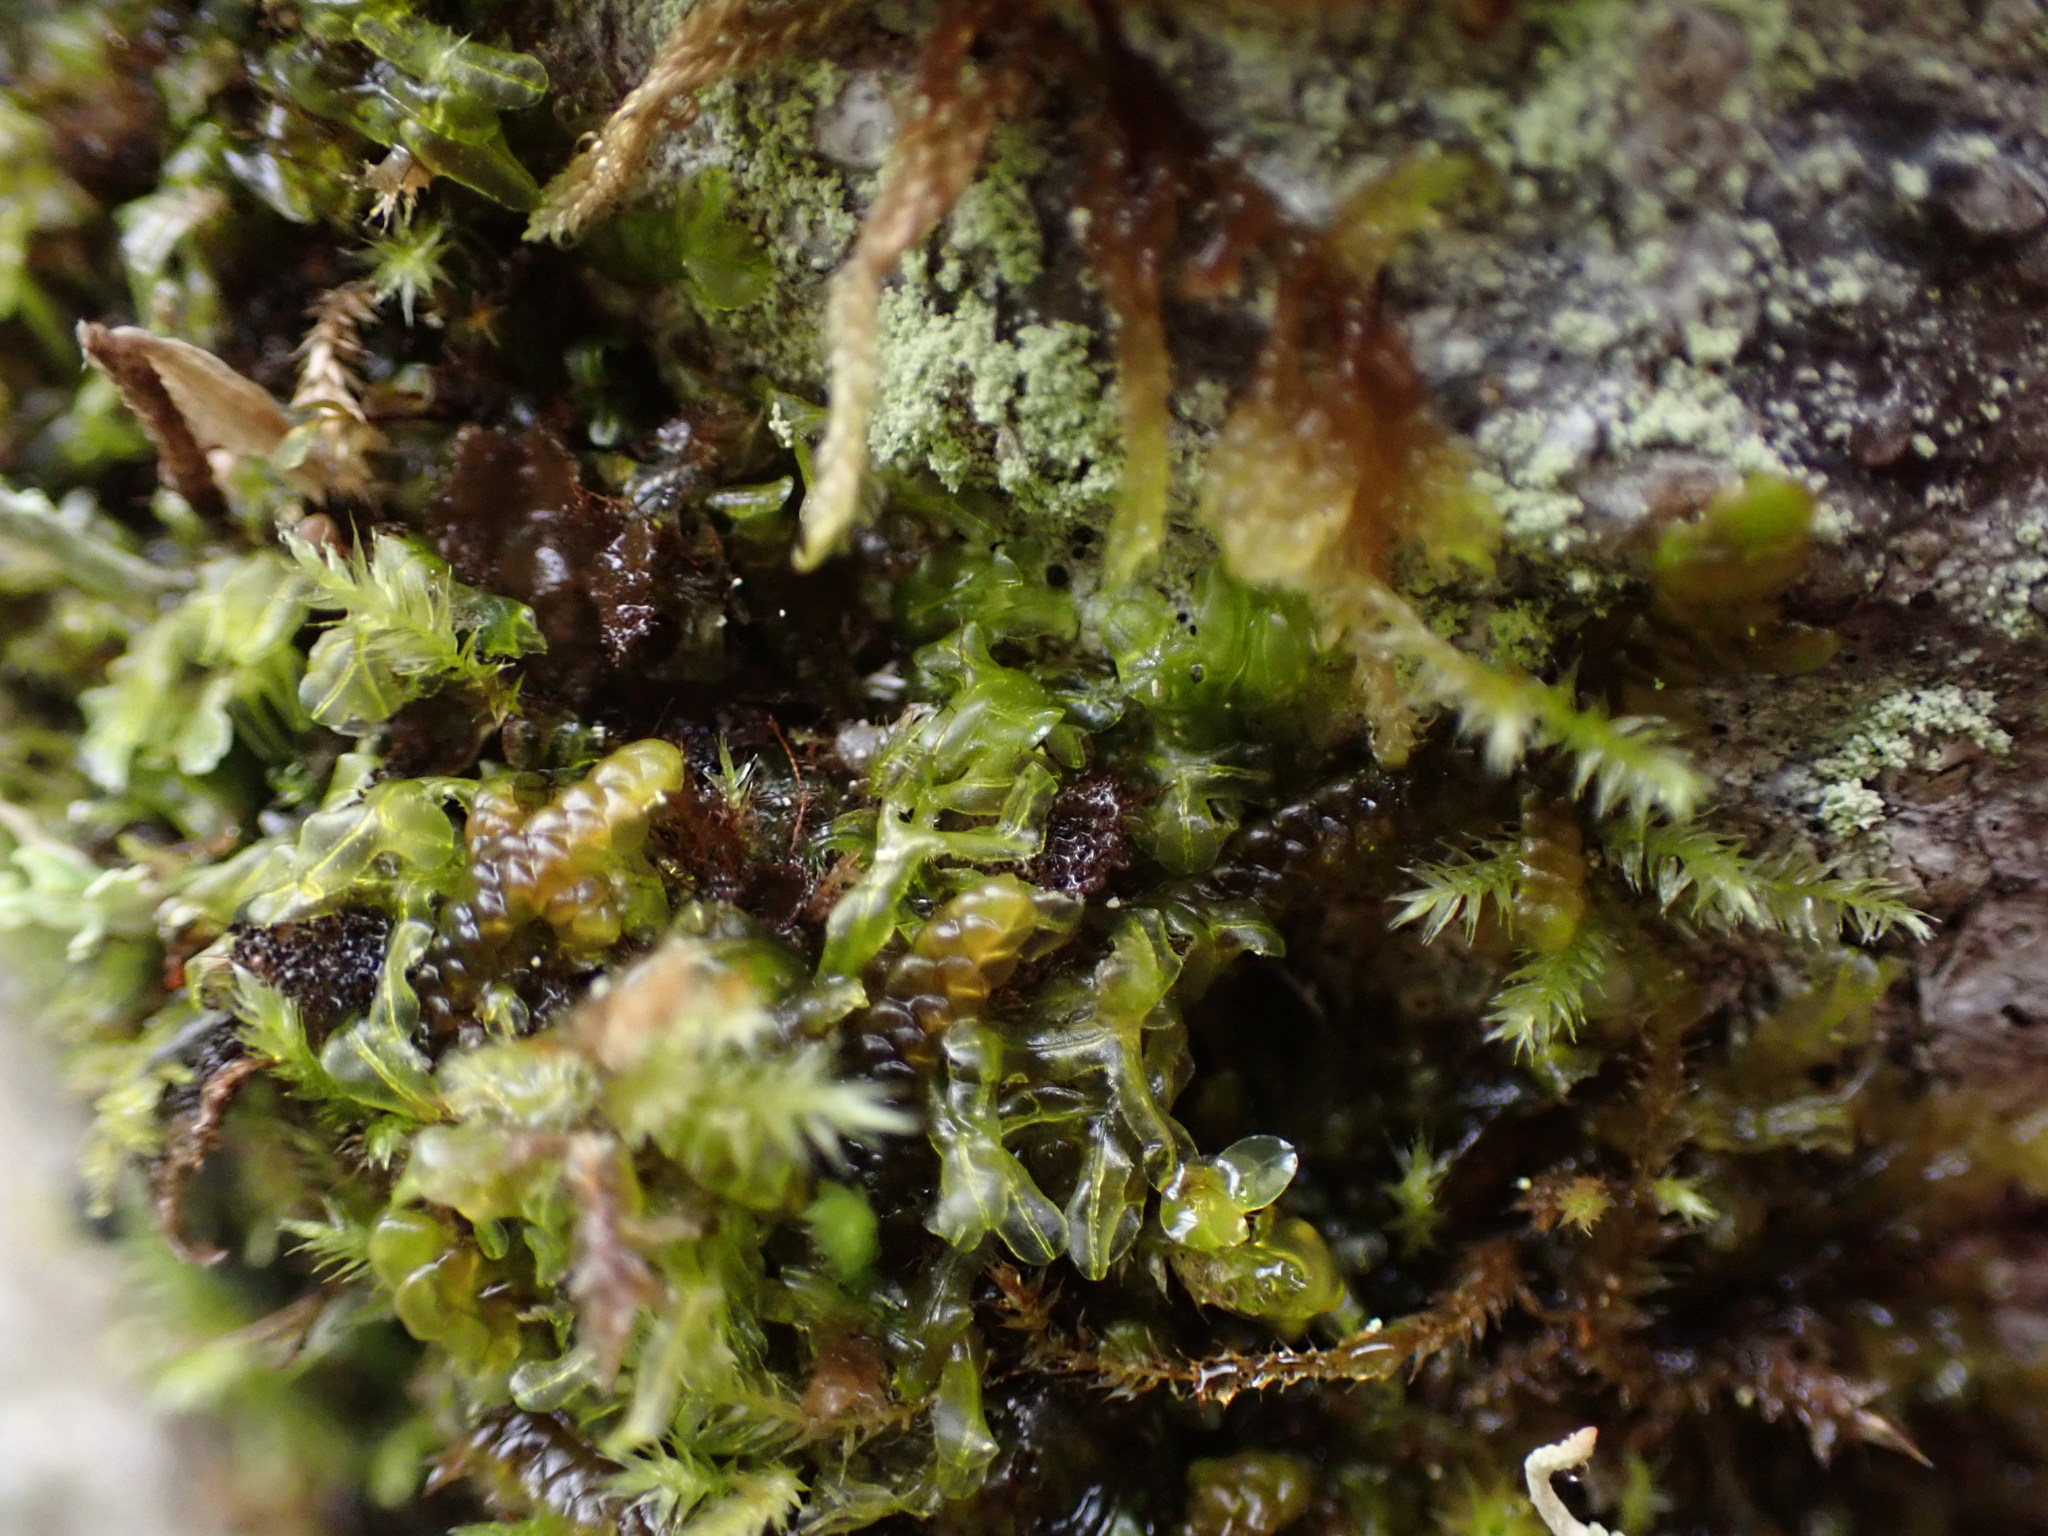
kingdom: Plantae
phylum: Marchantiophyta
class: Jungermanniopsida
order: Metzgeriales
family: Metzgeriaceae
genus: Metzgeria
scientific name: Metzgeria conjugata
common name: Rock veilwort
